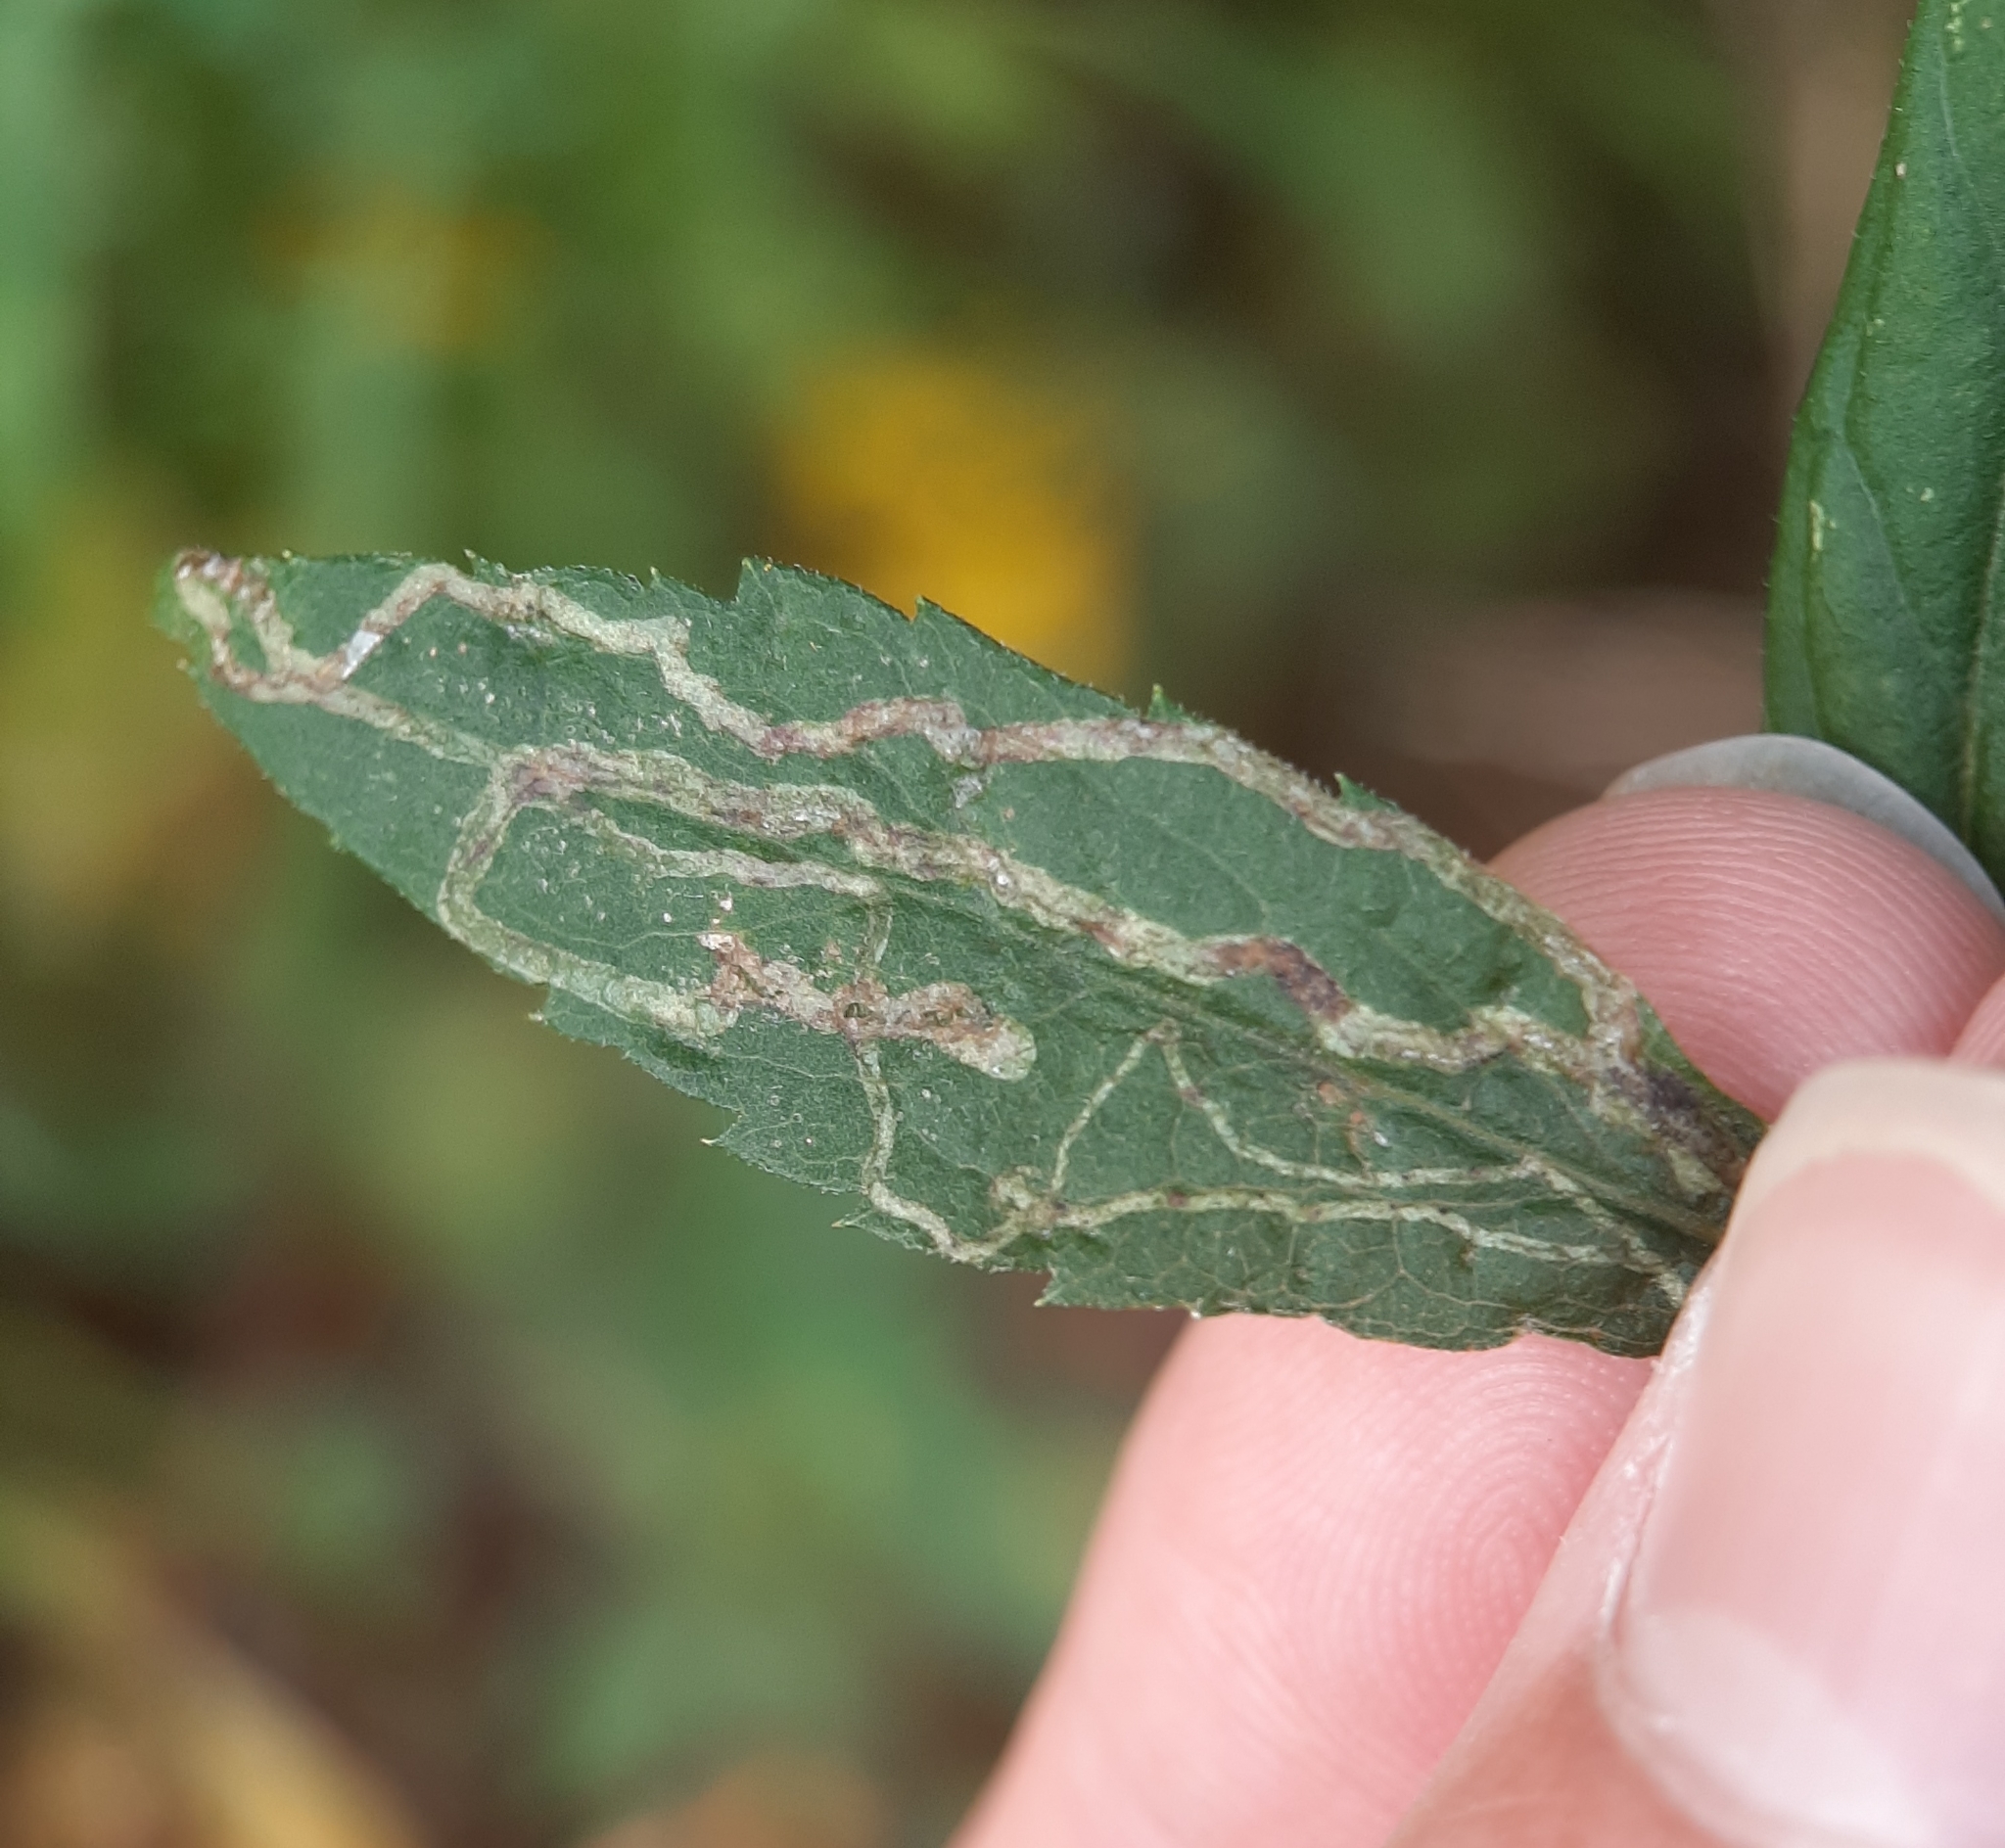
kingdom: Animalia
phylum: Arthropoda
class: Insecta
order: Diptera
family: Agromyzidae
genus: Ophiomyia
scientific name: Ophiomyia maura
